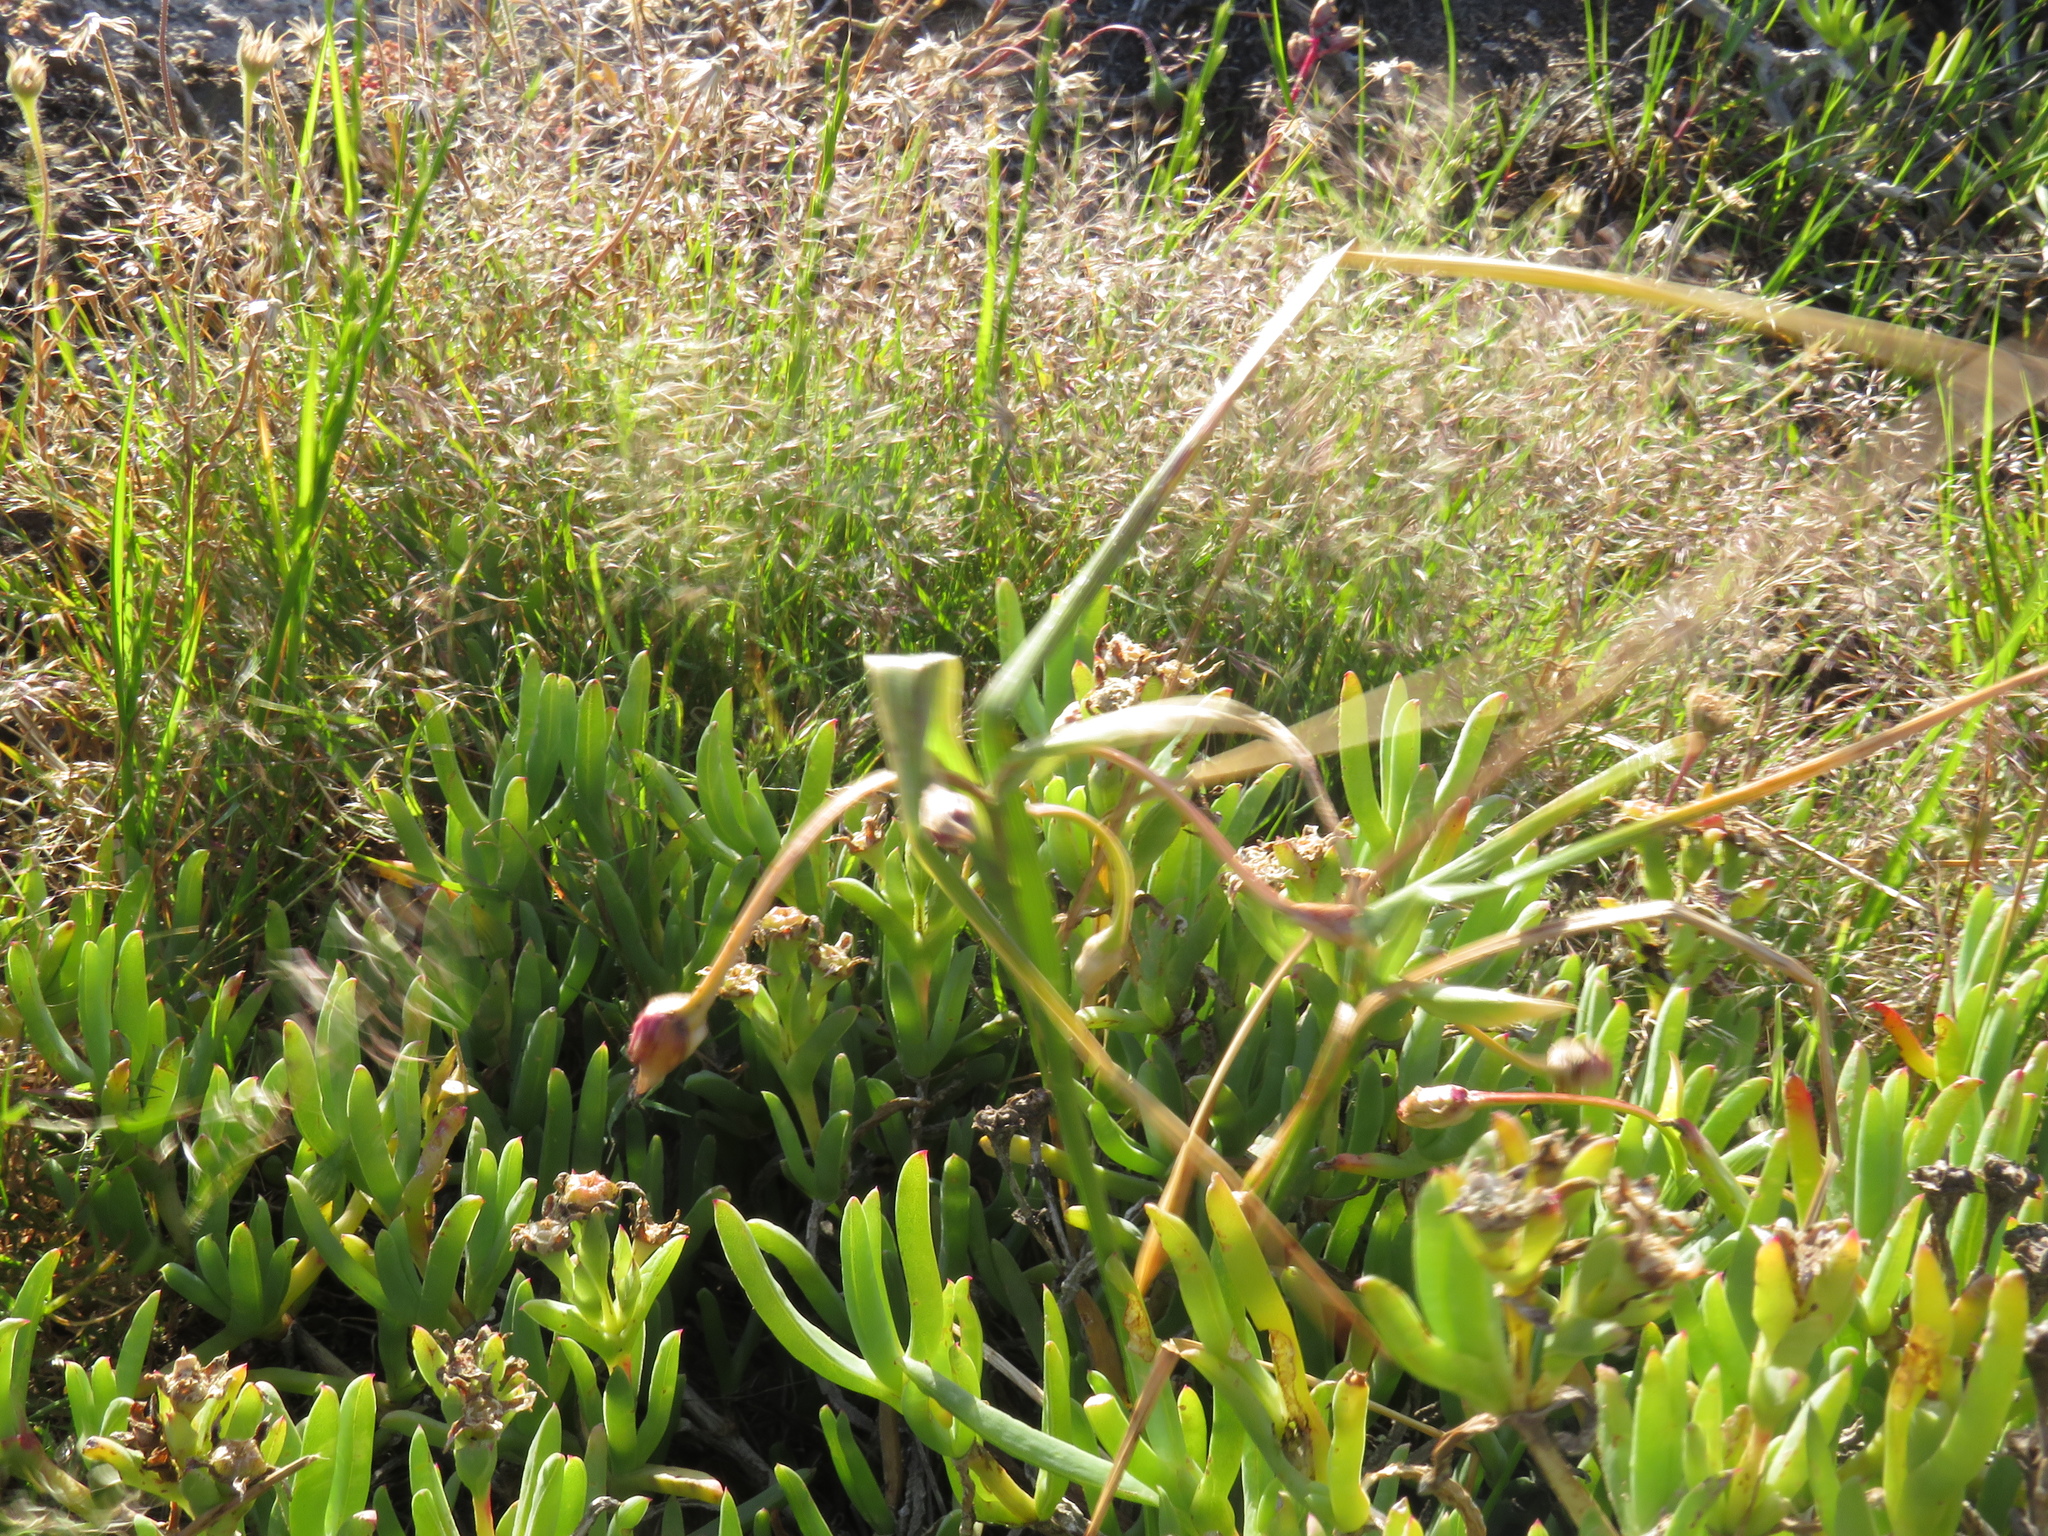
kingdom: Plantae
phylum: Tracheophyta
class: Liliopsida
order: Asparagales
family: Iridaceae
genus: Romulea
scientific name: Romulea flava
